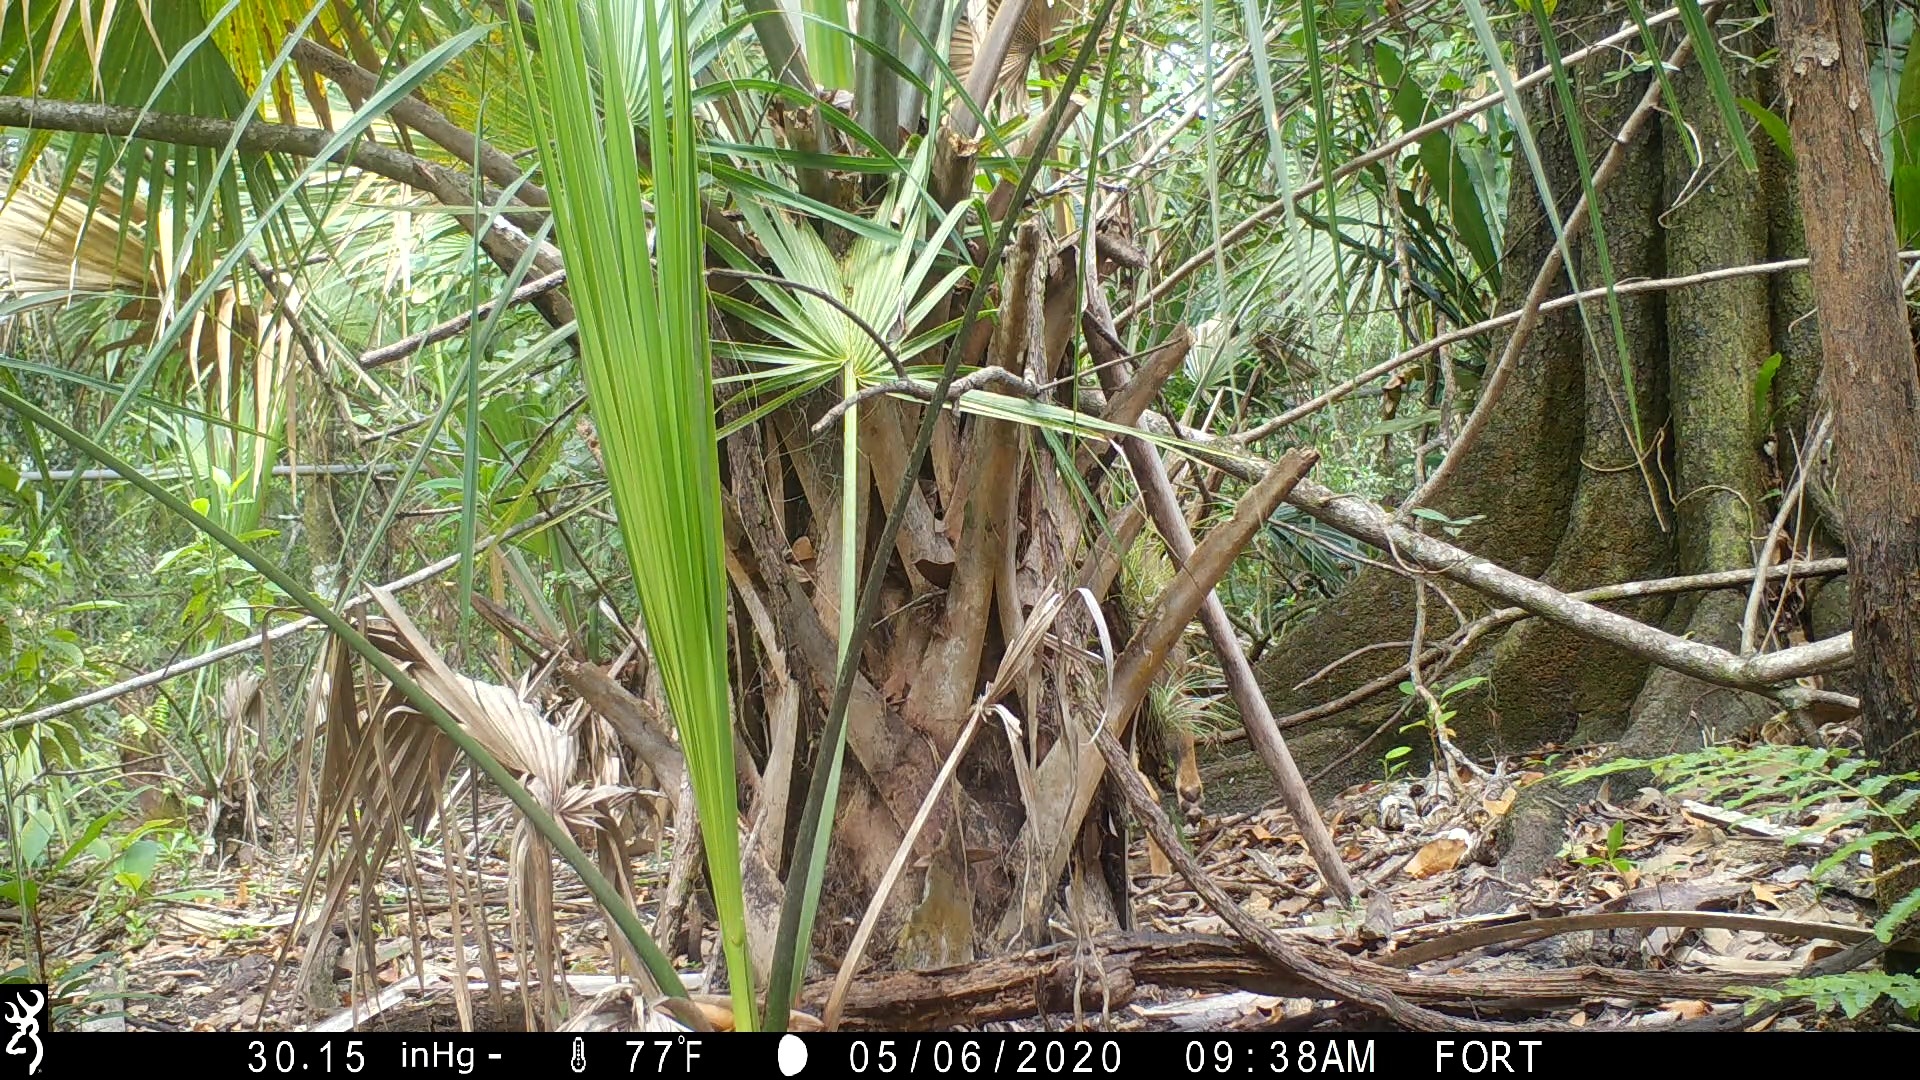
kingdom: Animalia
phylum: Chordata
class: Mammalia
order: Carnivora
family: Canidae
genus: Canis
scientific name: Canis latrans
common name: Coyote
